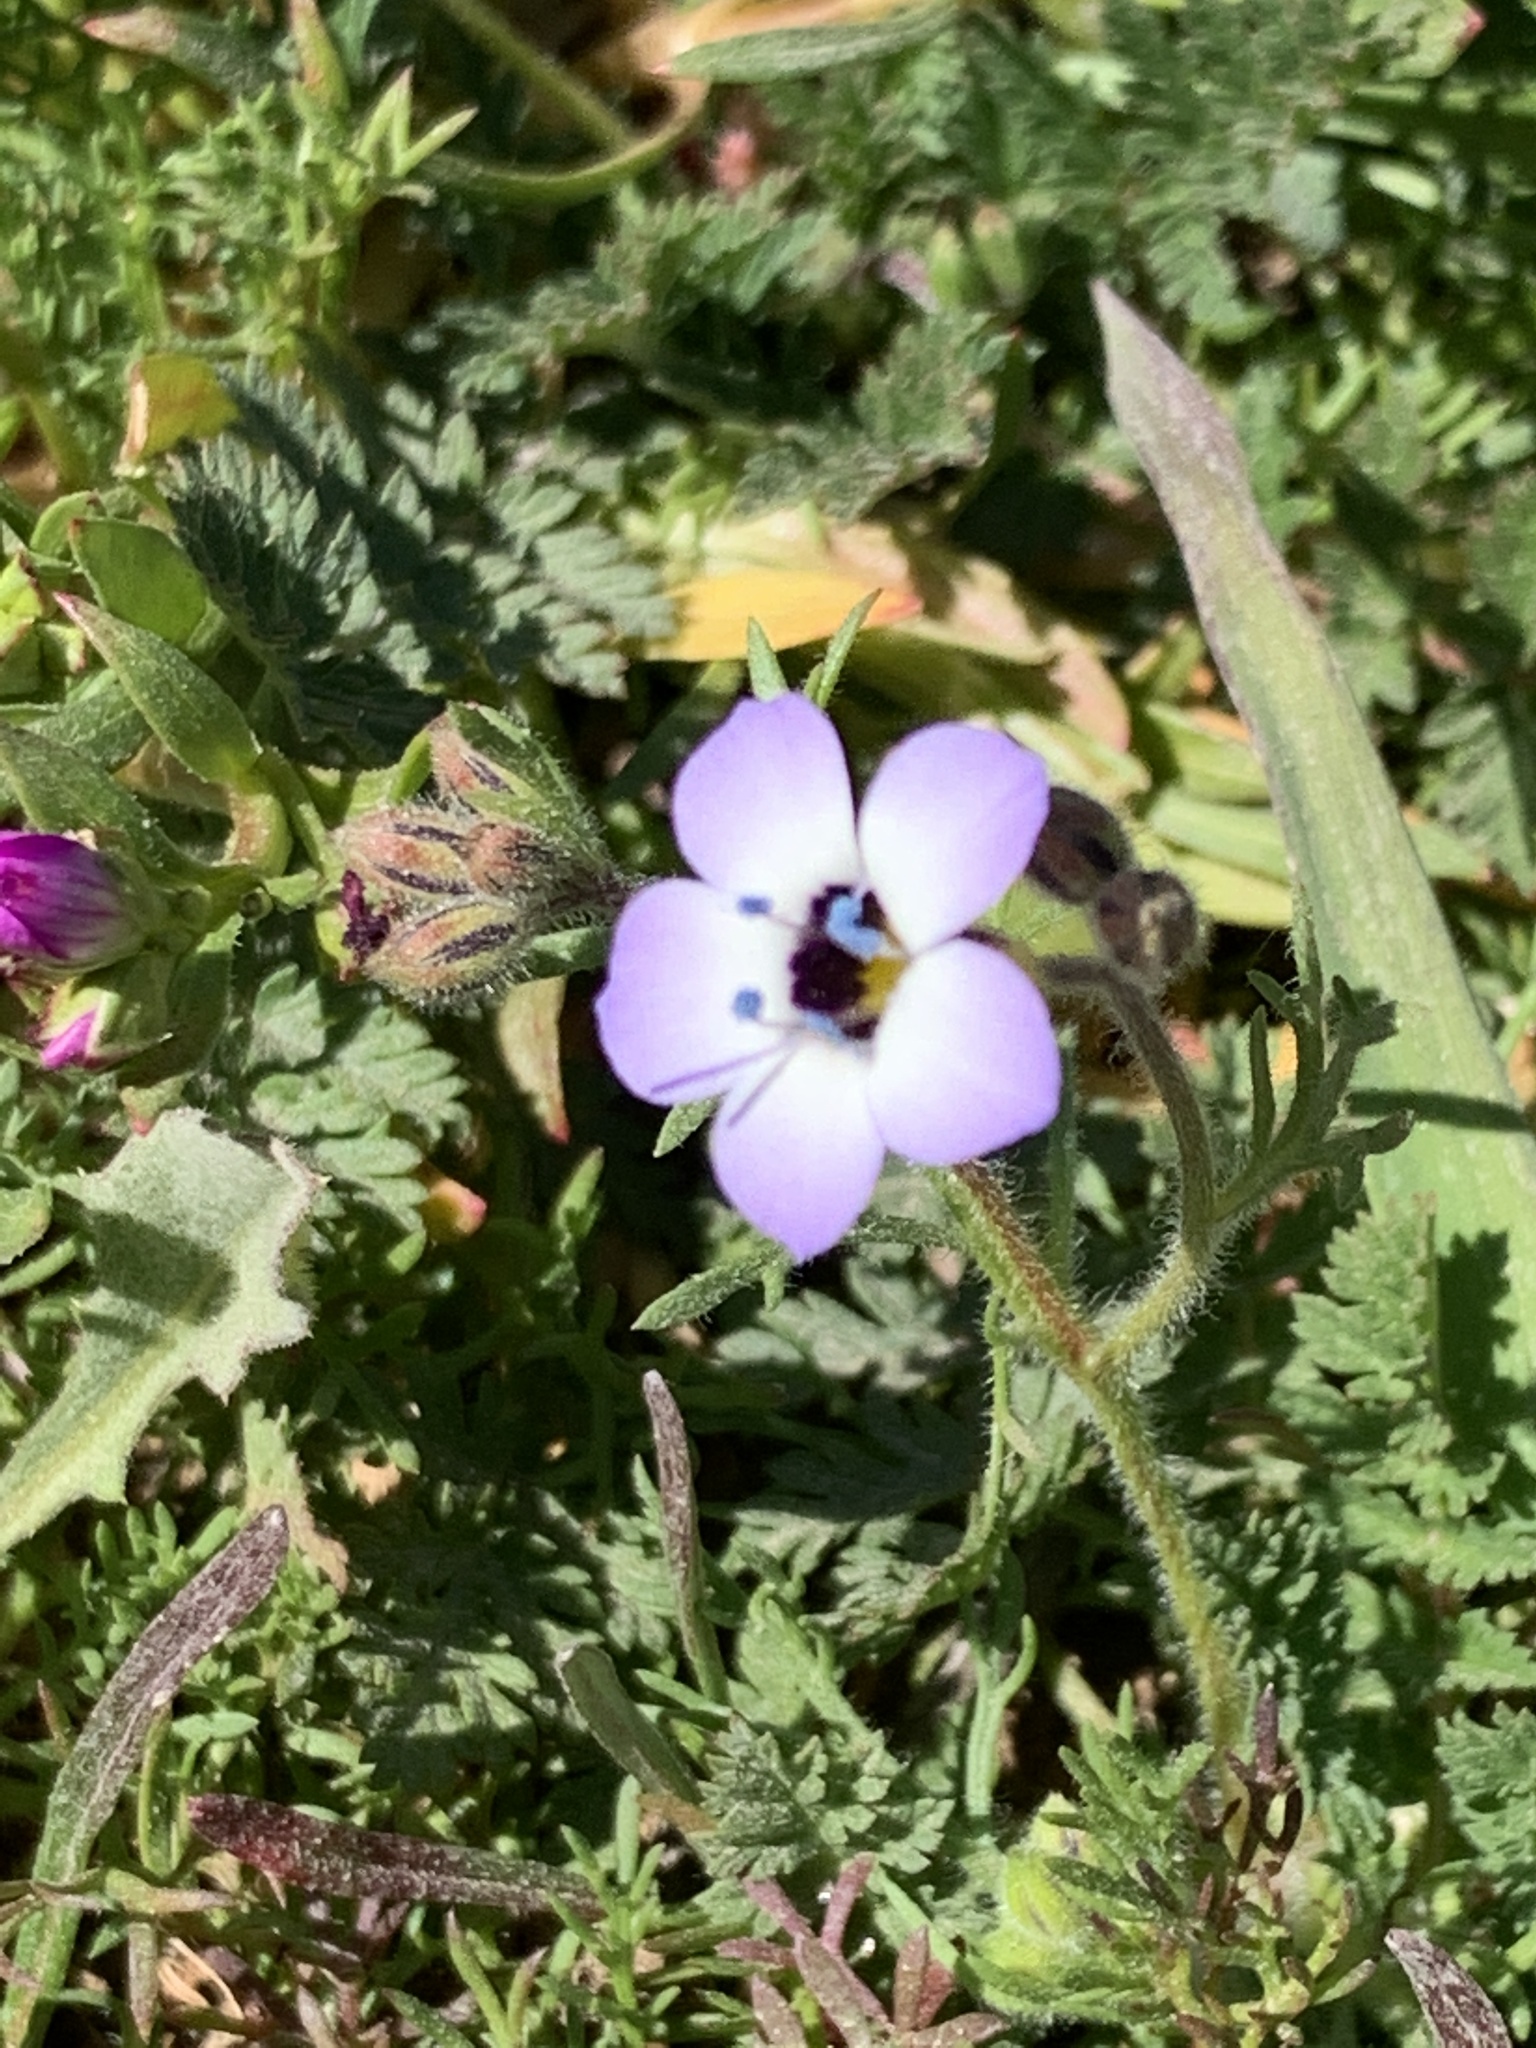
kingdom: Plantae
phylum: Tracheophyta
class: Magnoliopsida
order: Ericales
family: Polemoniaceae
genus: Gilia
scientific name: Gilia tricolor
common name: Bird's-eyes
